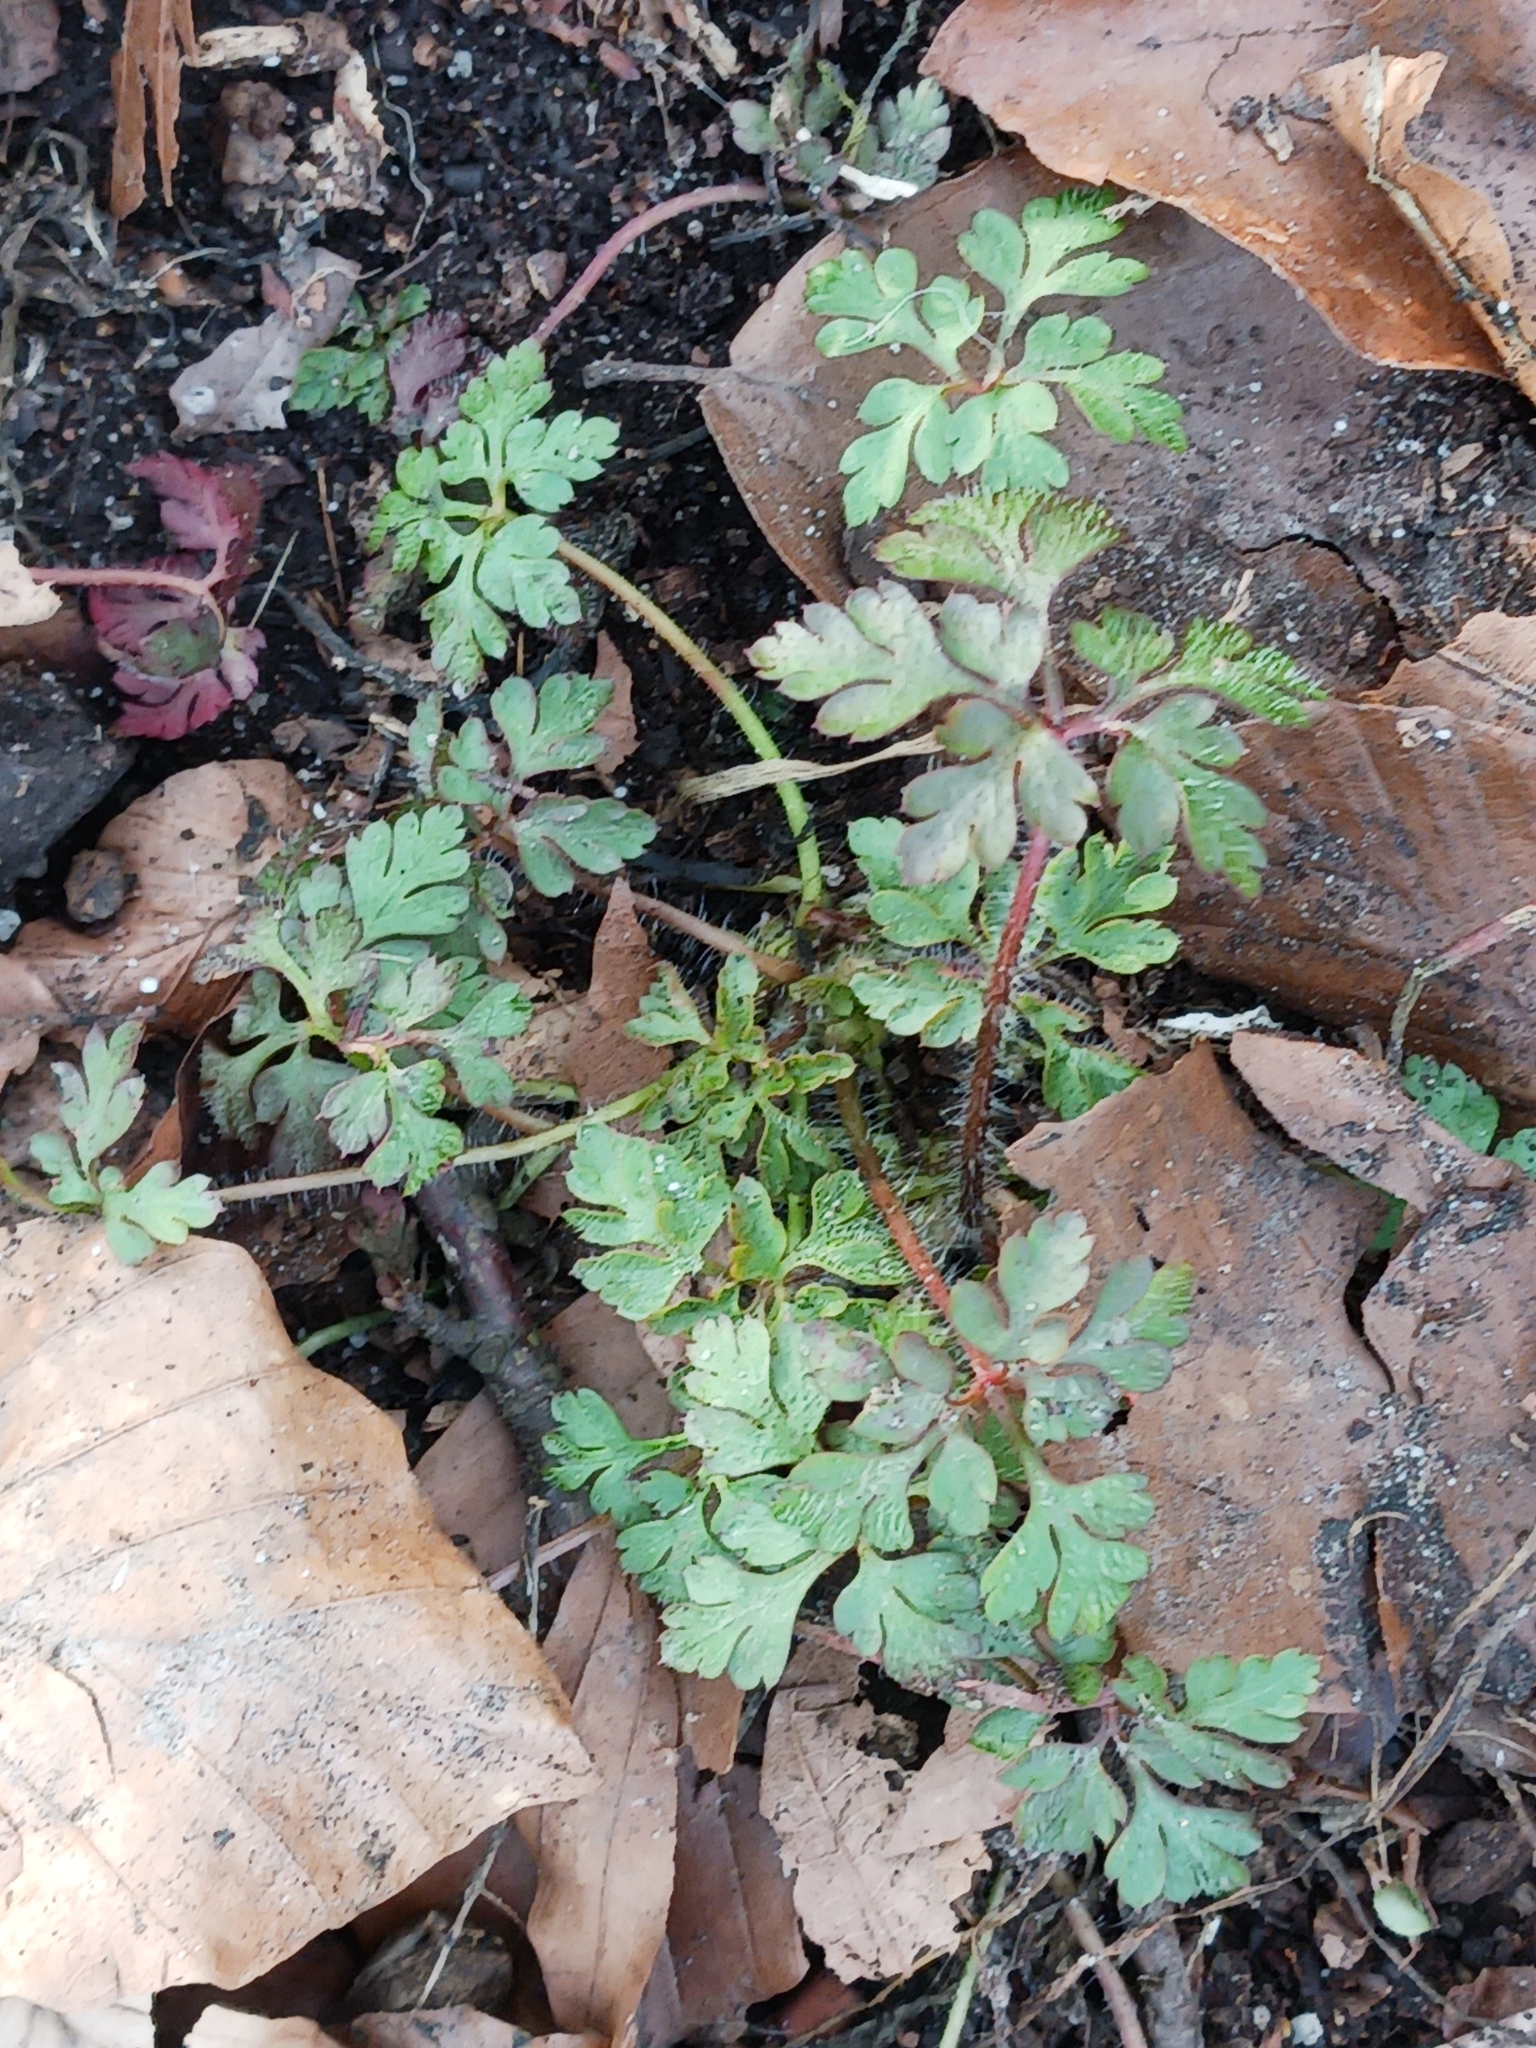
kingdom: Plantae
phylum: Tracheophyta
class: Magnoliopsida
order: Geraniales
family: Geraniaceae
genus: Geranium
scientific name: Geranium robertianum
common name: Herb-robert
